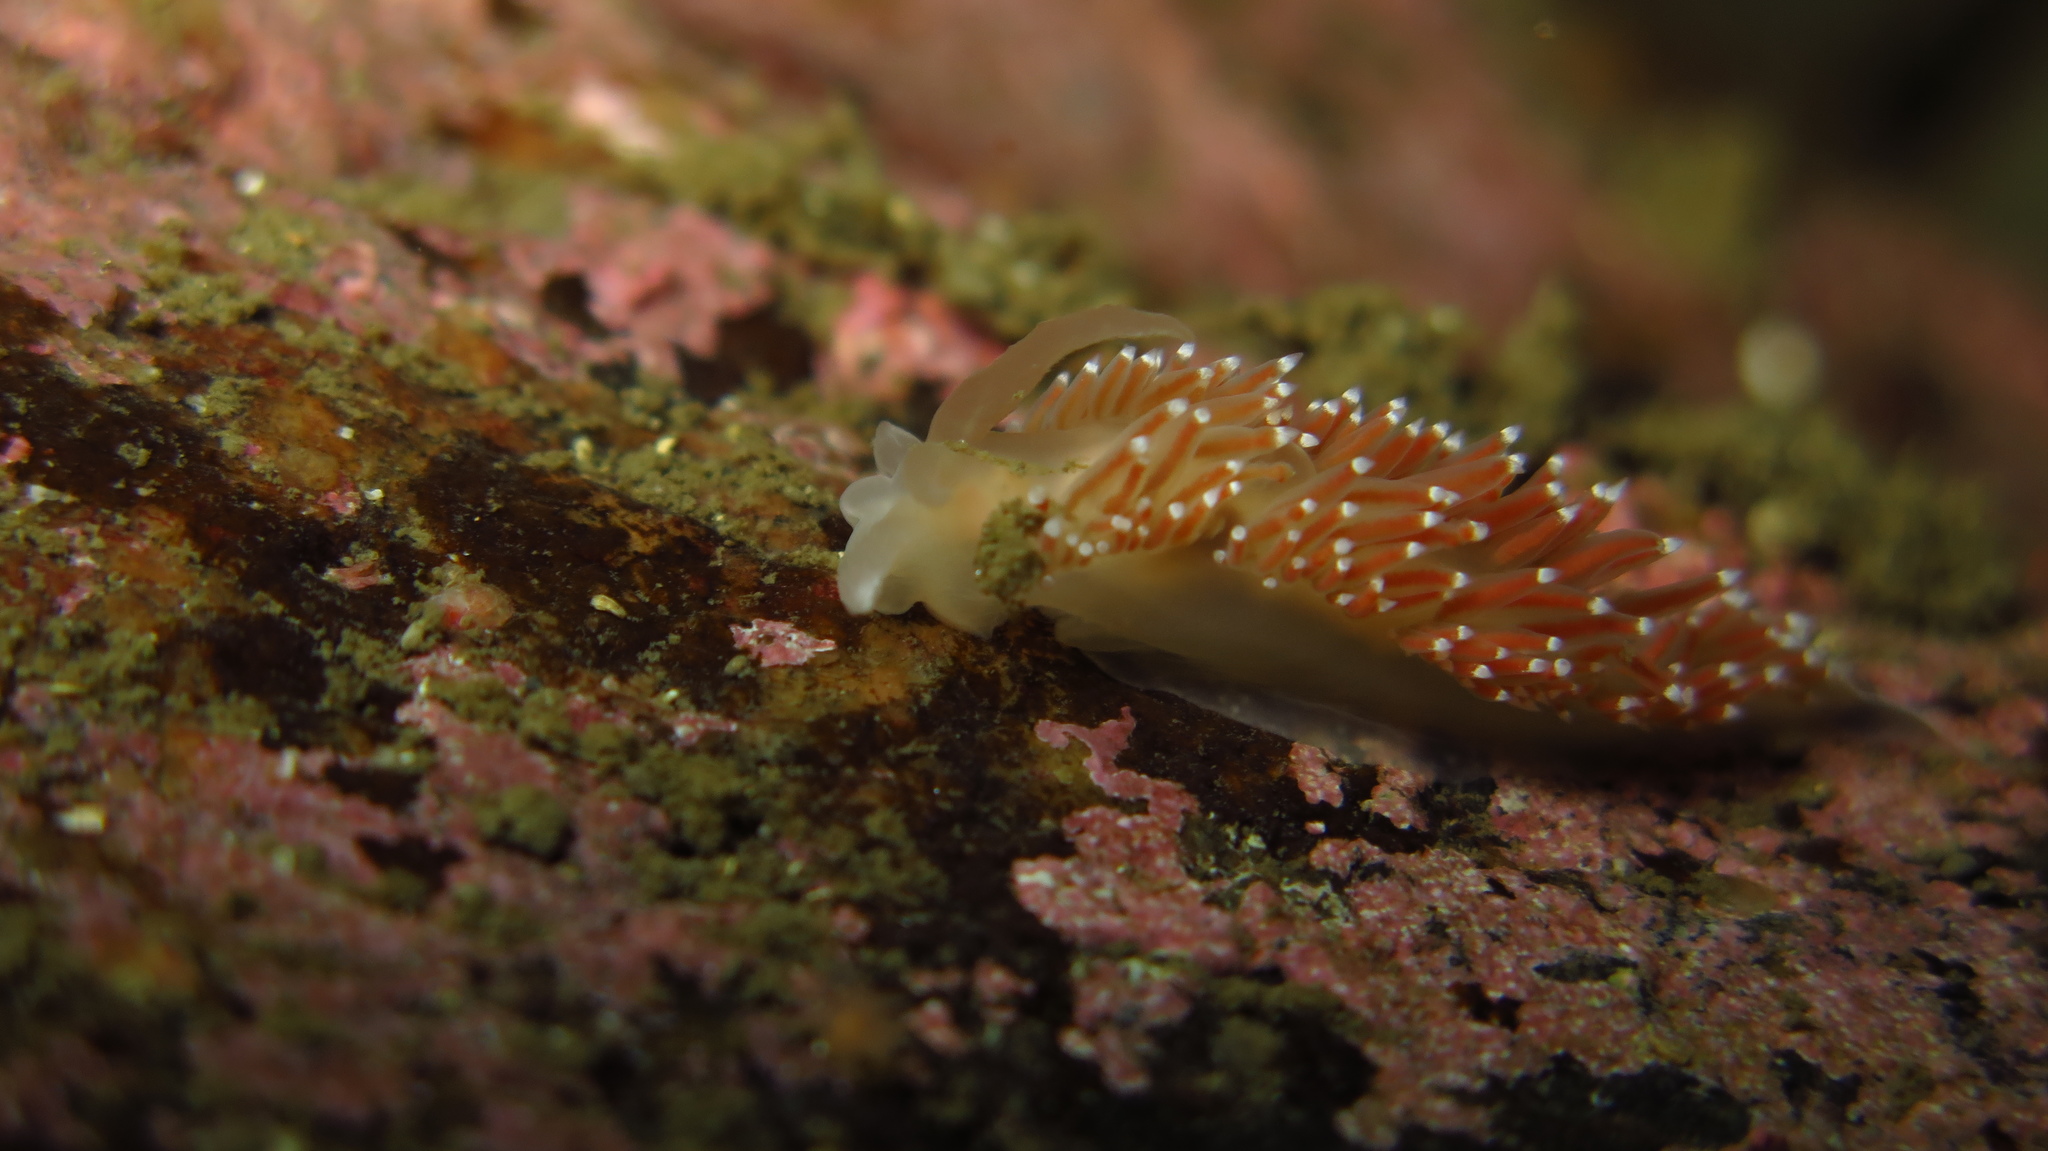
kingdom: Animalia
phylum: Mollusca
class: Gastropoda
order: Nudibranchia
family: Coryphellidae
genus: Coryphella
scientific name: Coryphella verrucosa
